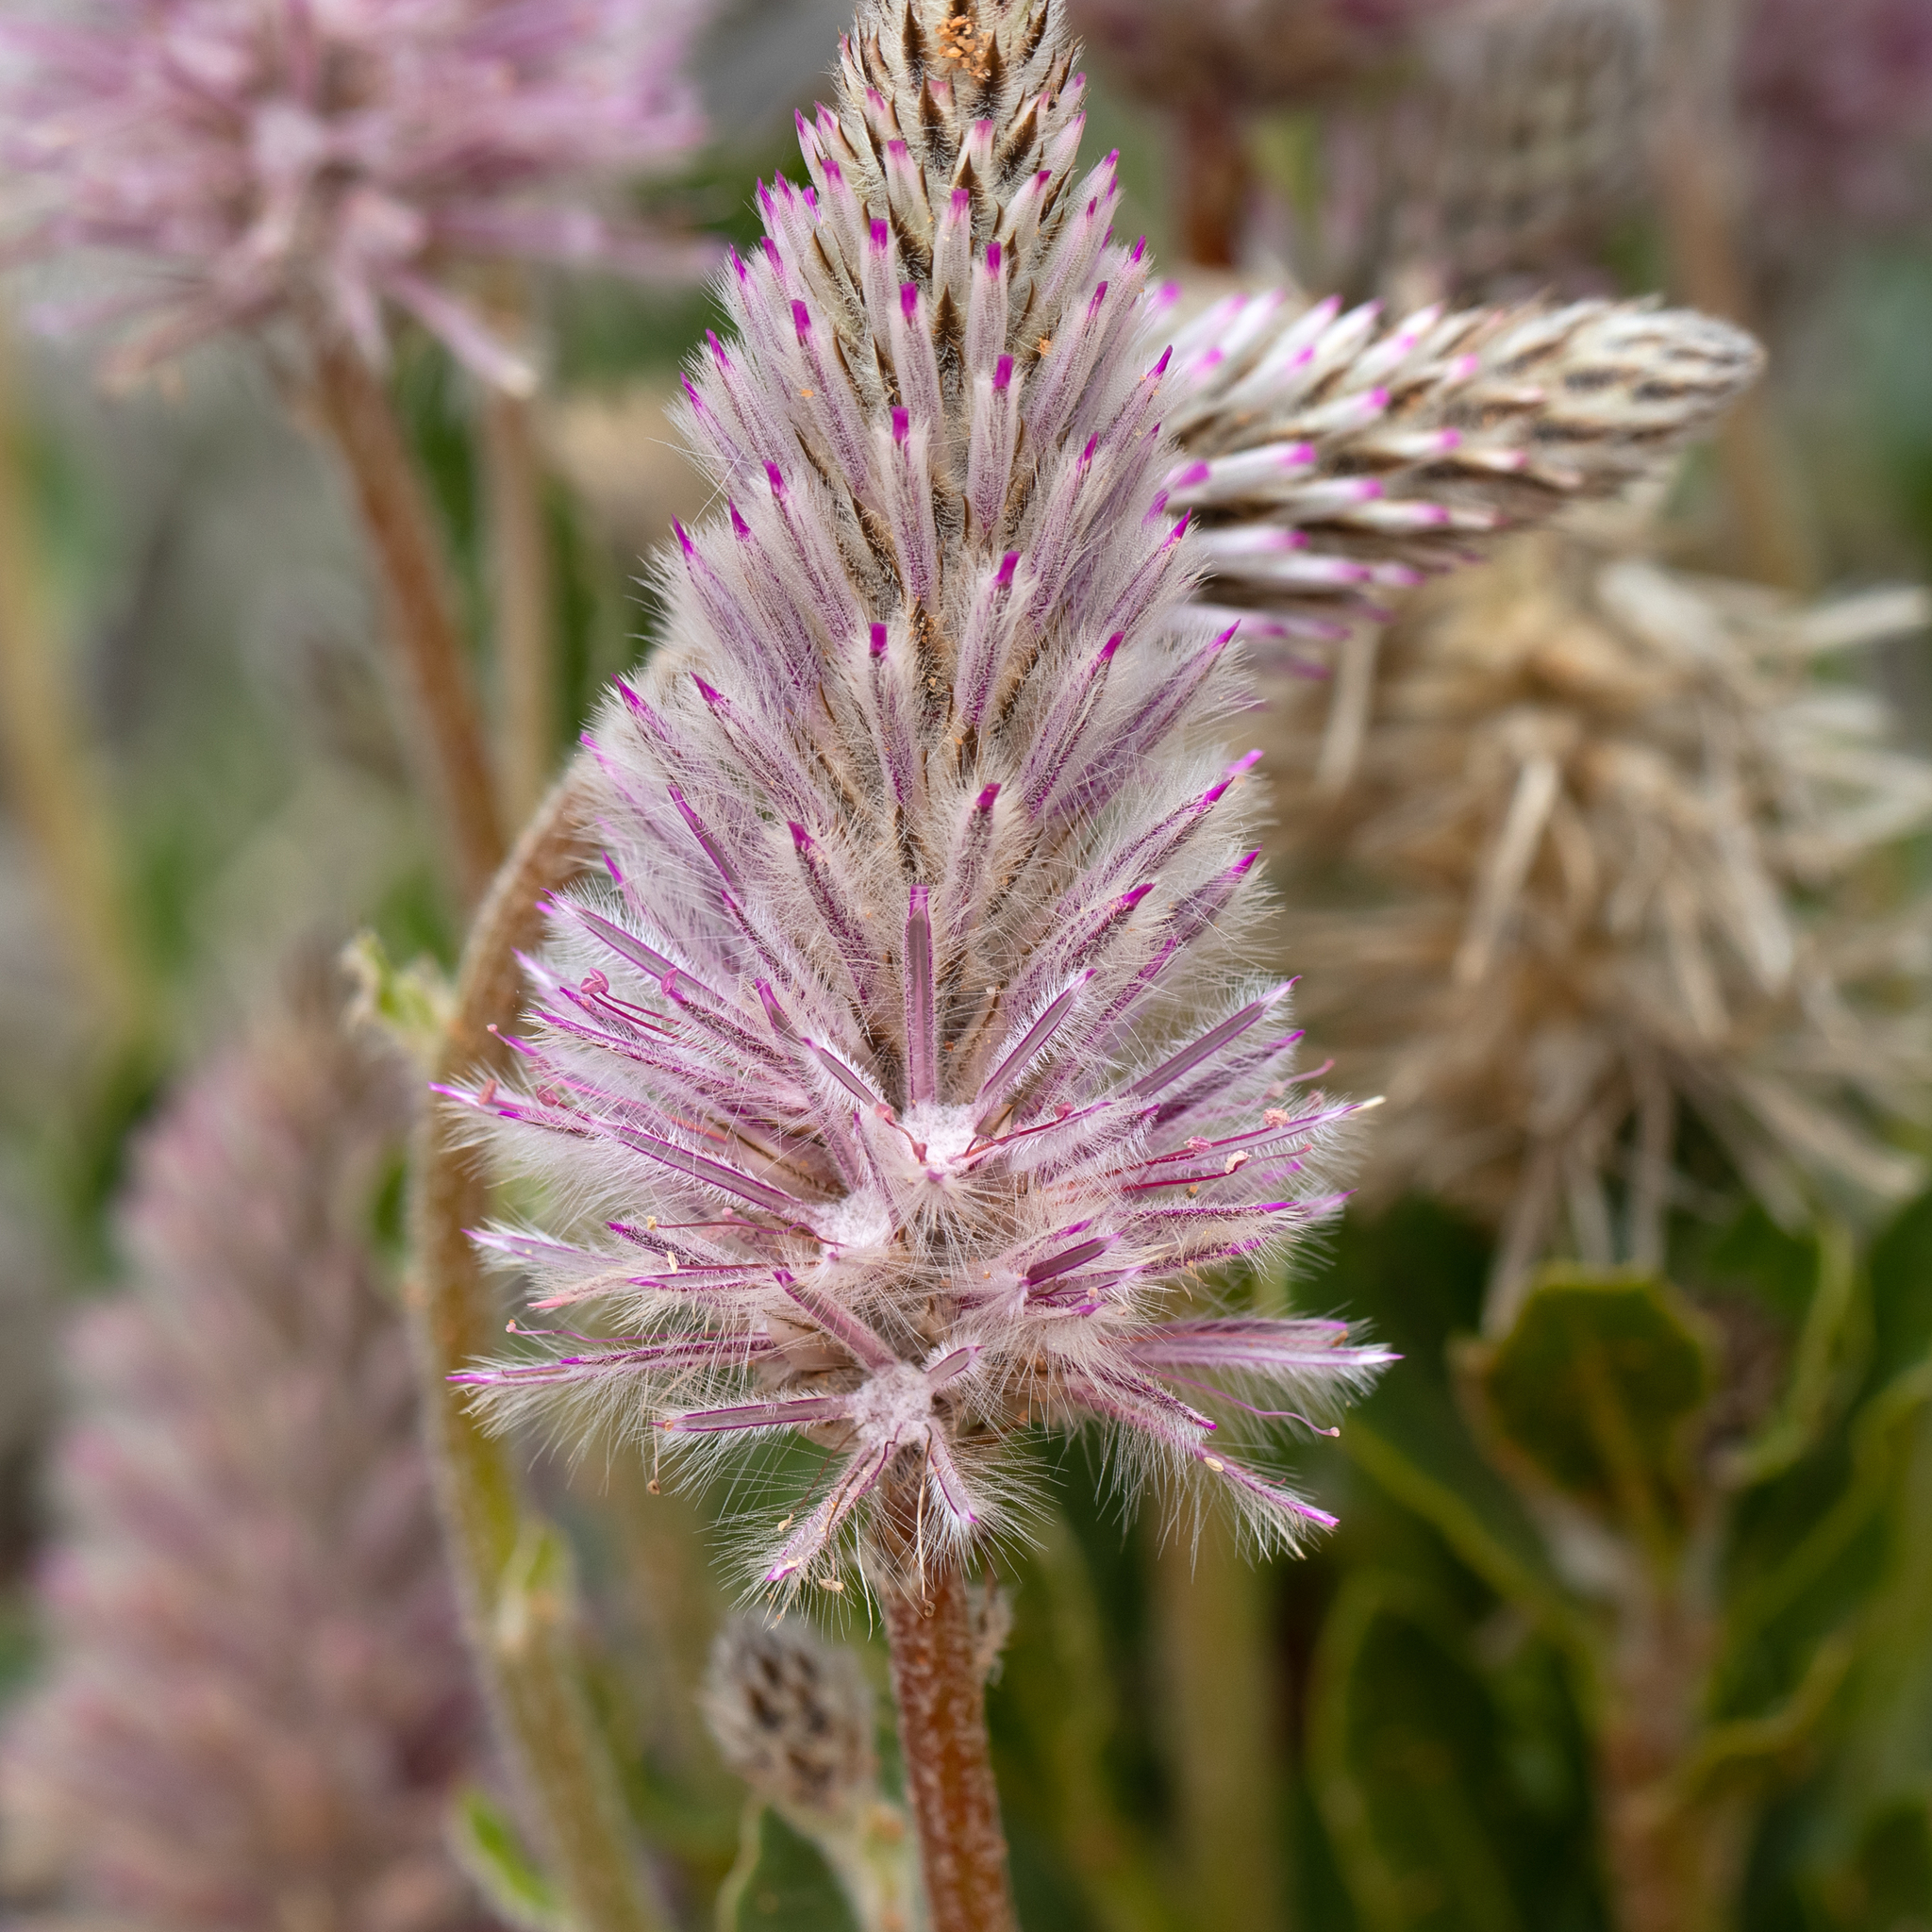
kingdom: Plantae
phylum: Tracheophyta
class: Magnoliopsida
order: Caryophyllales
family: Amaranthaceae
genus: Ptilotus
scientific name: Ptilotus exaltatus
